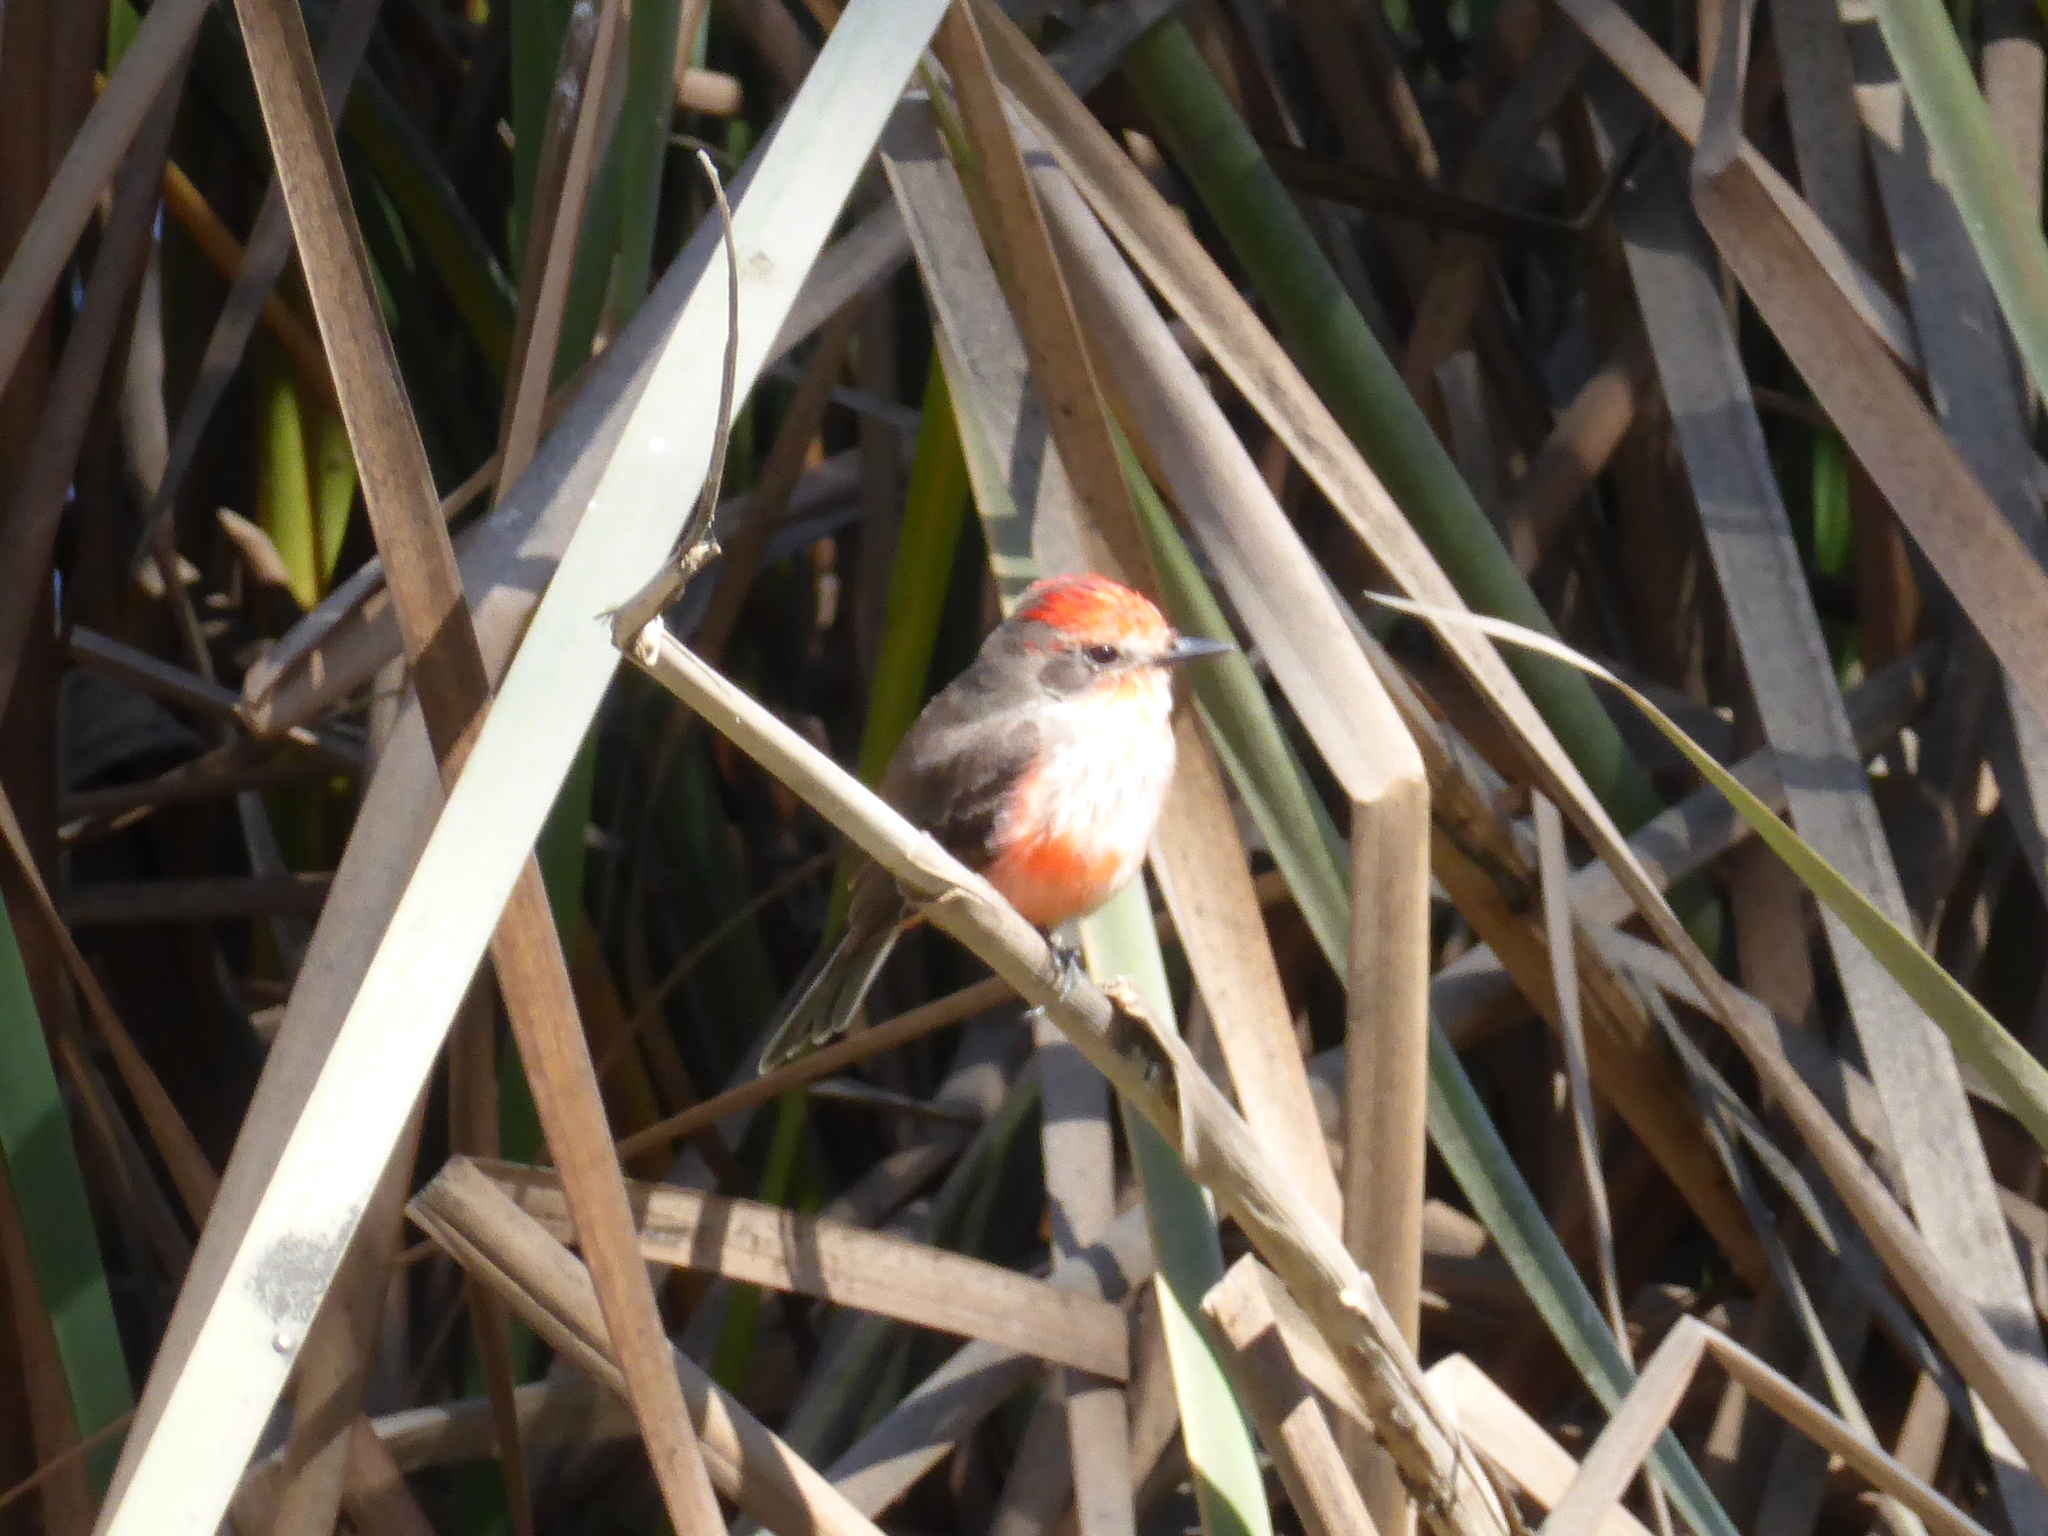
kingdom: Animalia
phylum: Chordata
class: Aves
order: Passeriformes
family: Tyrannidae
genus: Pyrocephalus
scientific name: Pyrocephalus rubinus
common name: Vermilion flycatcher
